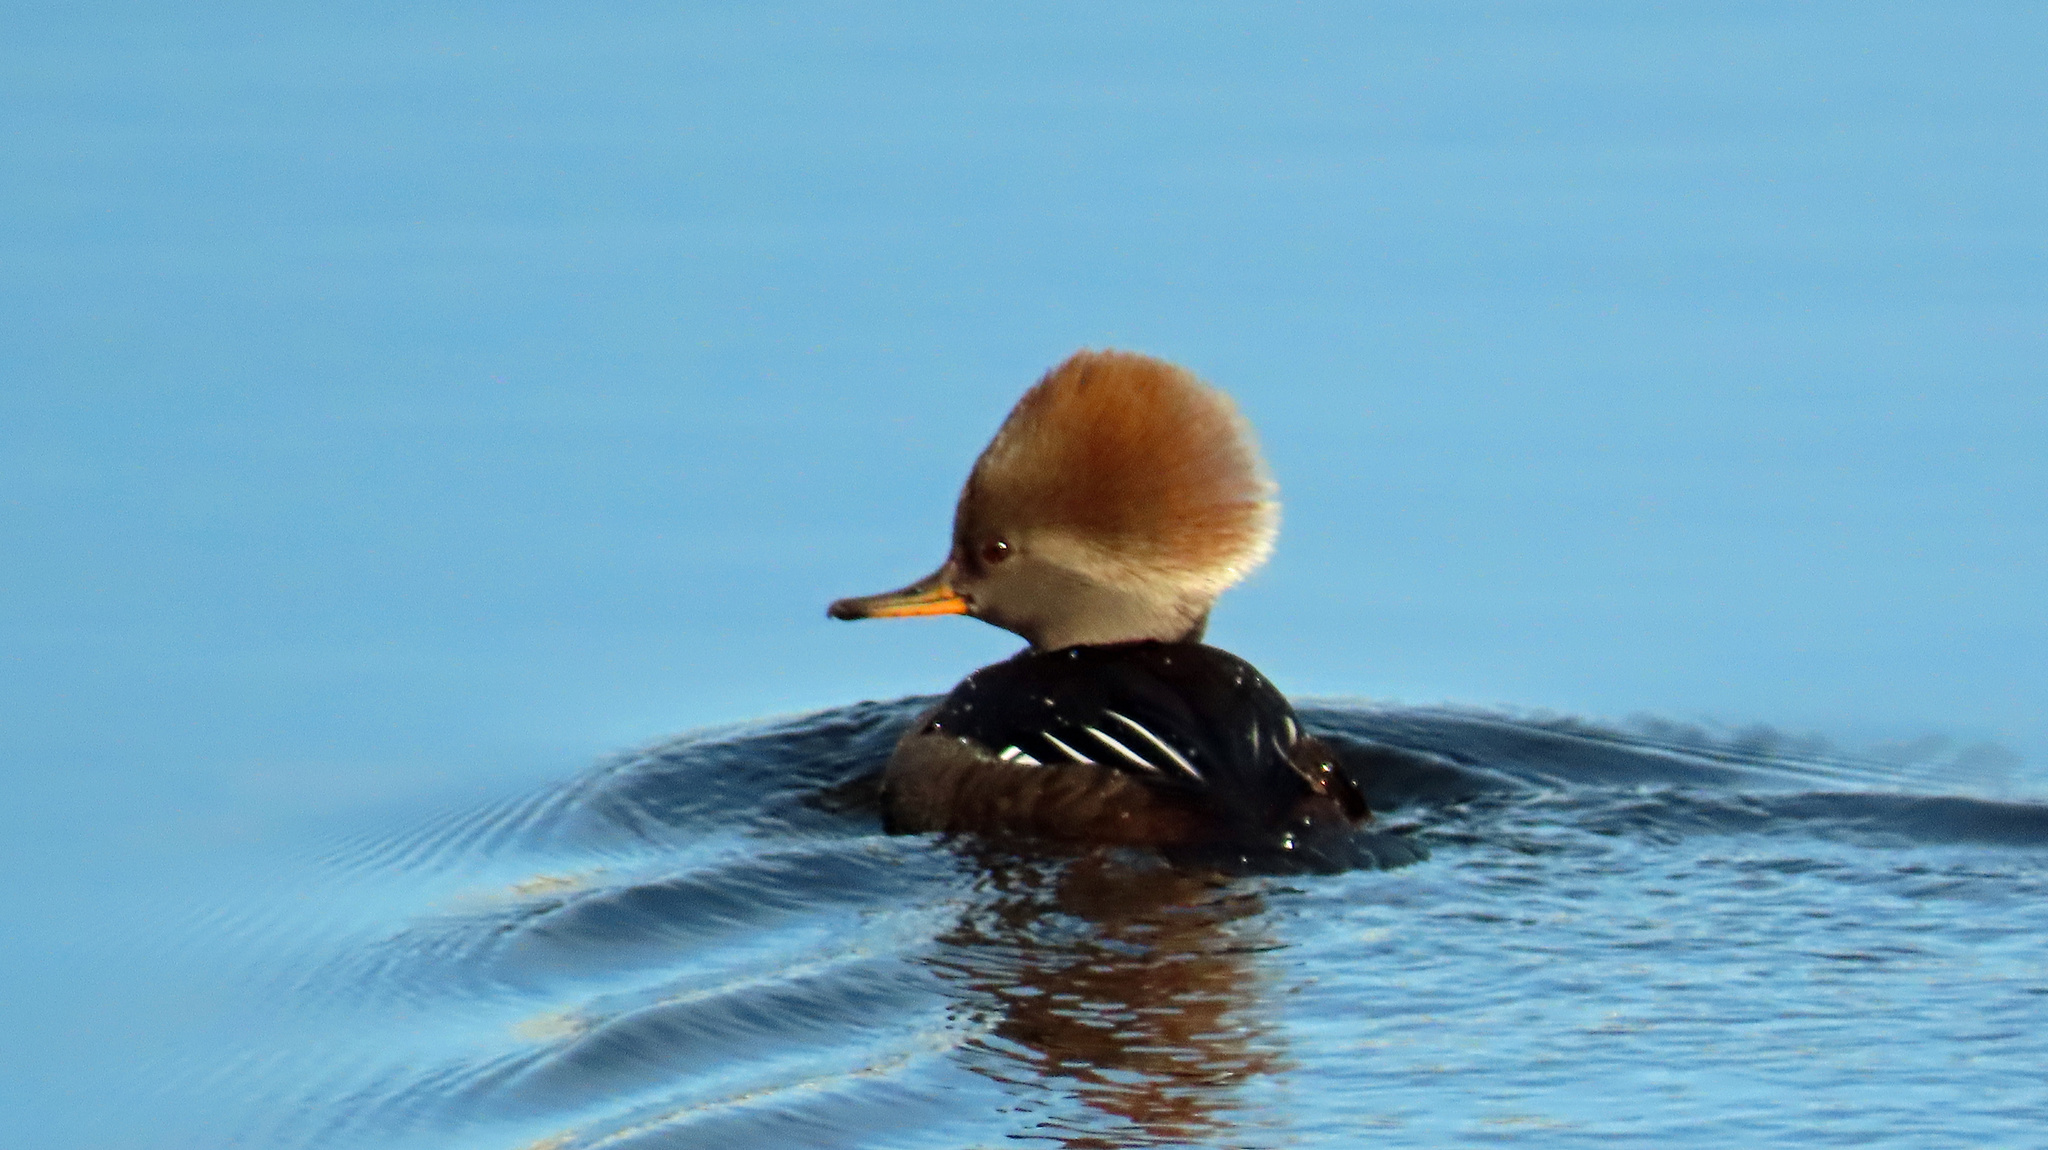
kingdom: Animalia
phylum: Chordata
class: Aves
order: Anseriformes
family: Anatidae
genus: Lophodytes
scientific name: Lophodytes cucullatus
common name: Hooded merganser
